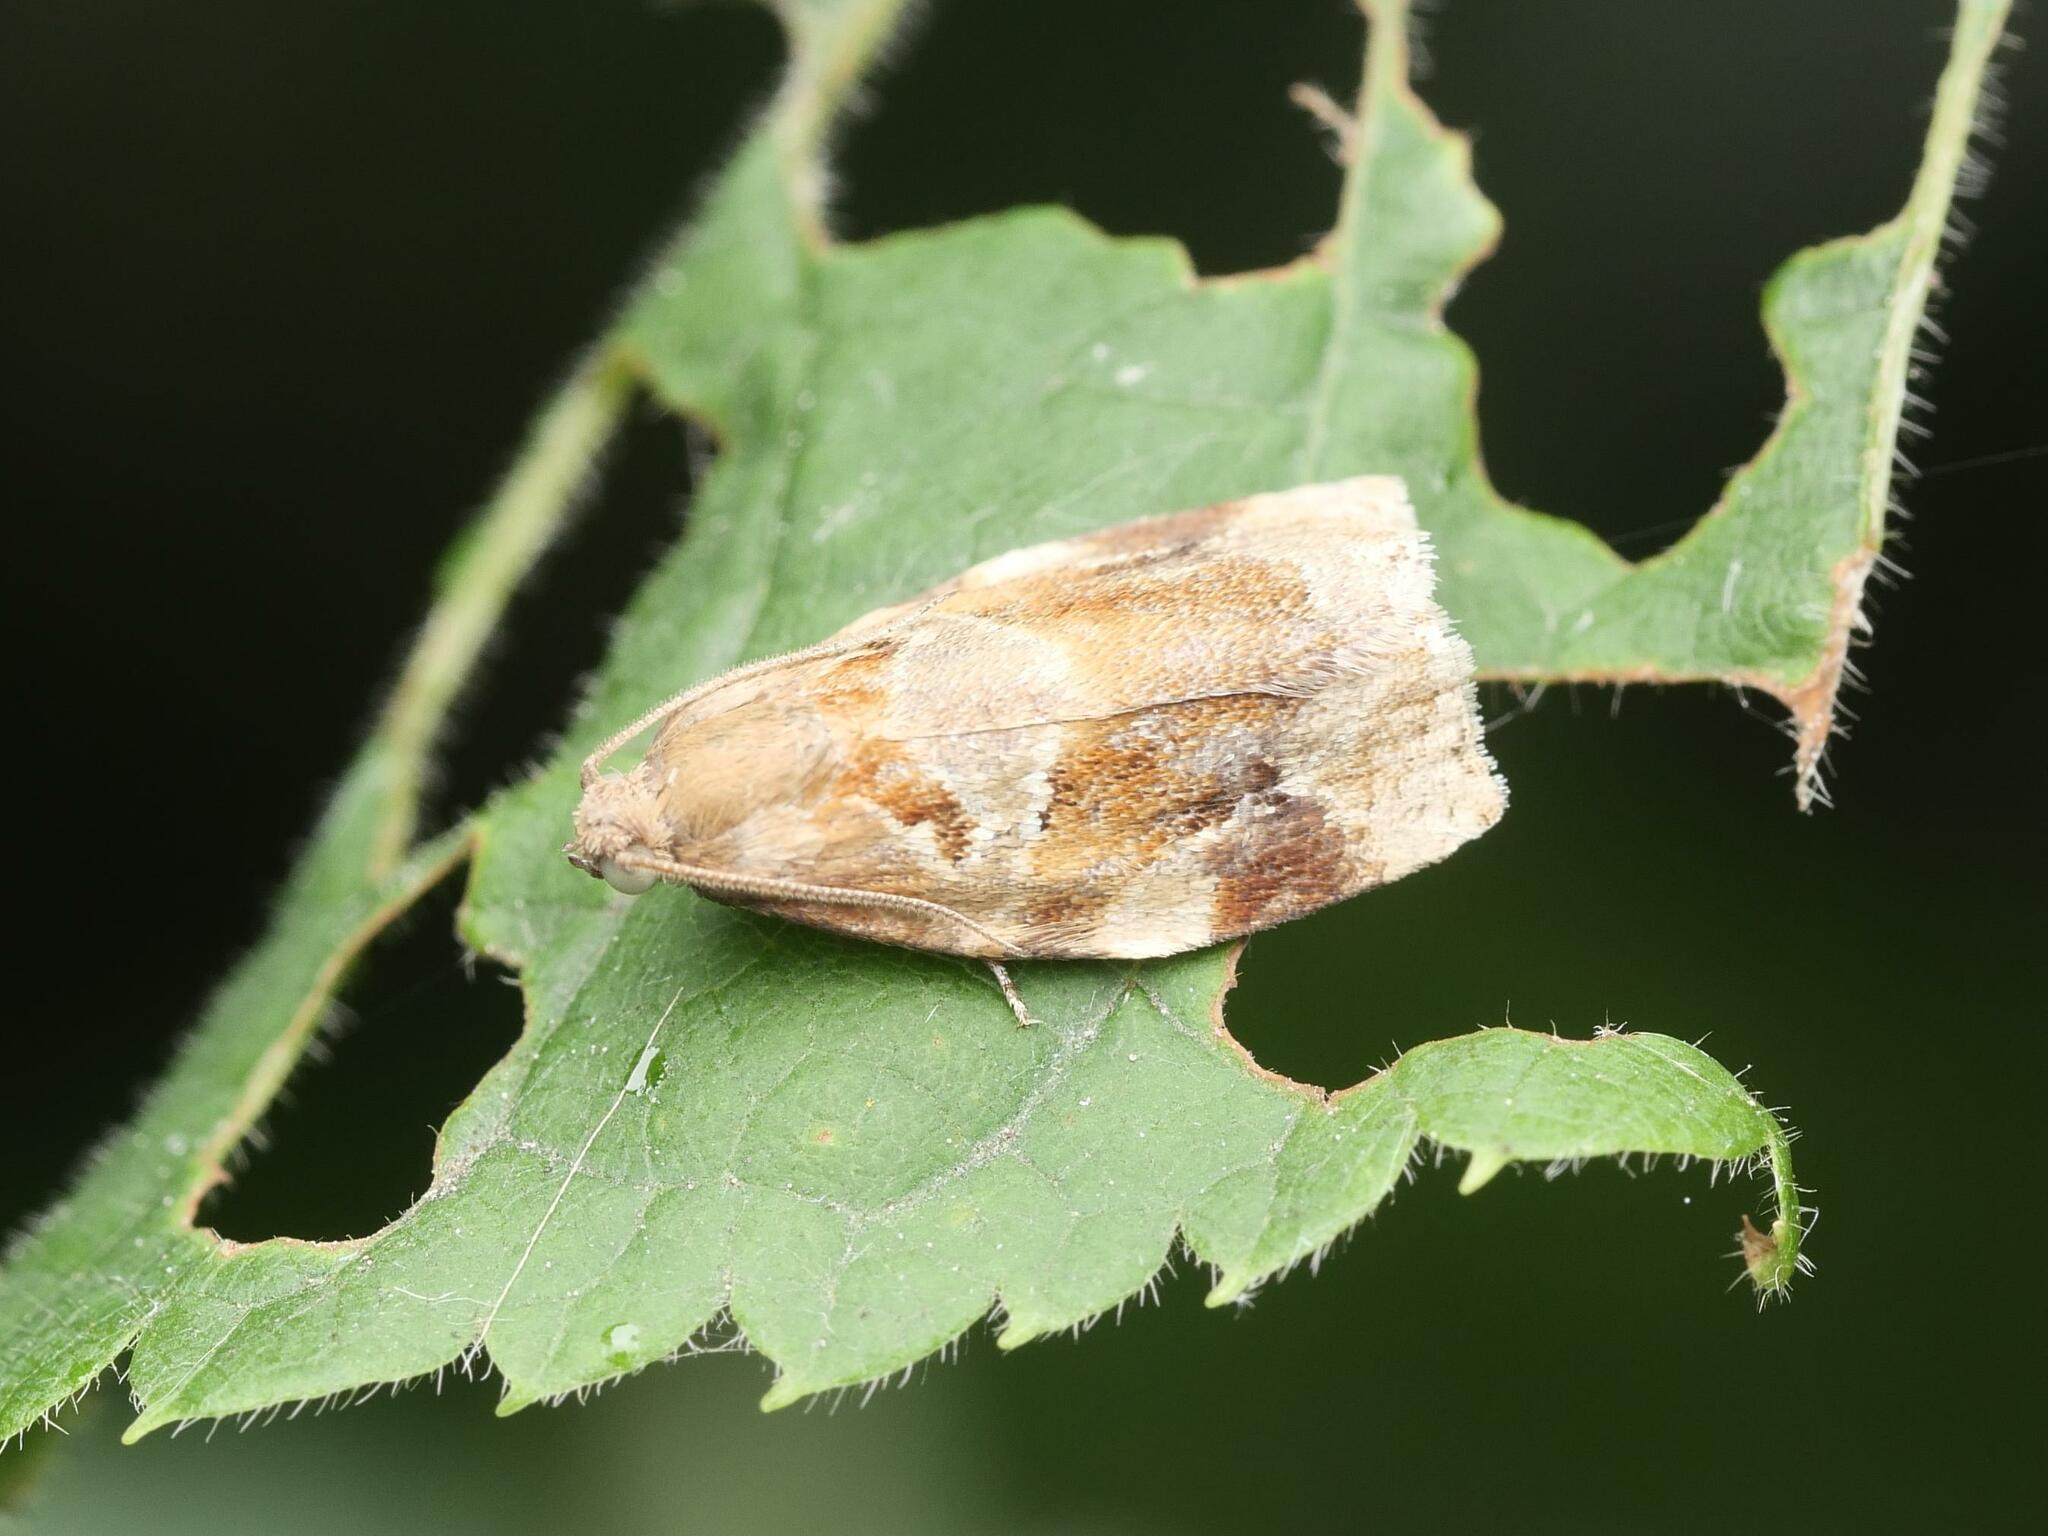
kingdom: Animalia
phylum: Arthropoda
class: Insecta
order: Lepidoptera
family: Tortricidae
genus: Archips
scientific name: Archips xylosteana
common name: Variegated golden tortrix
